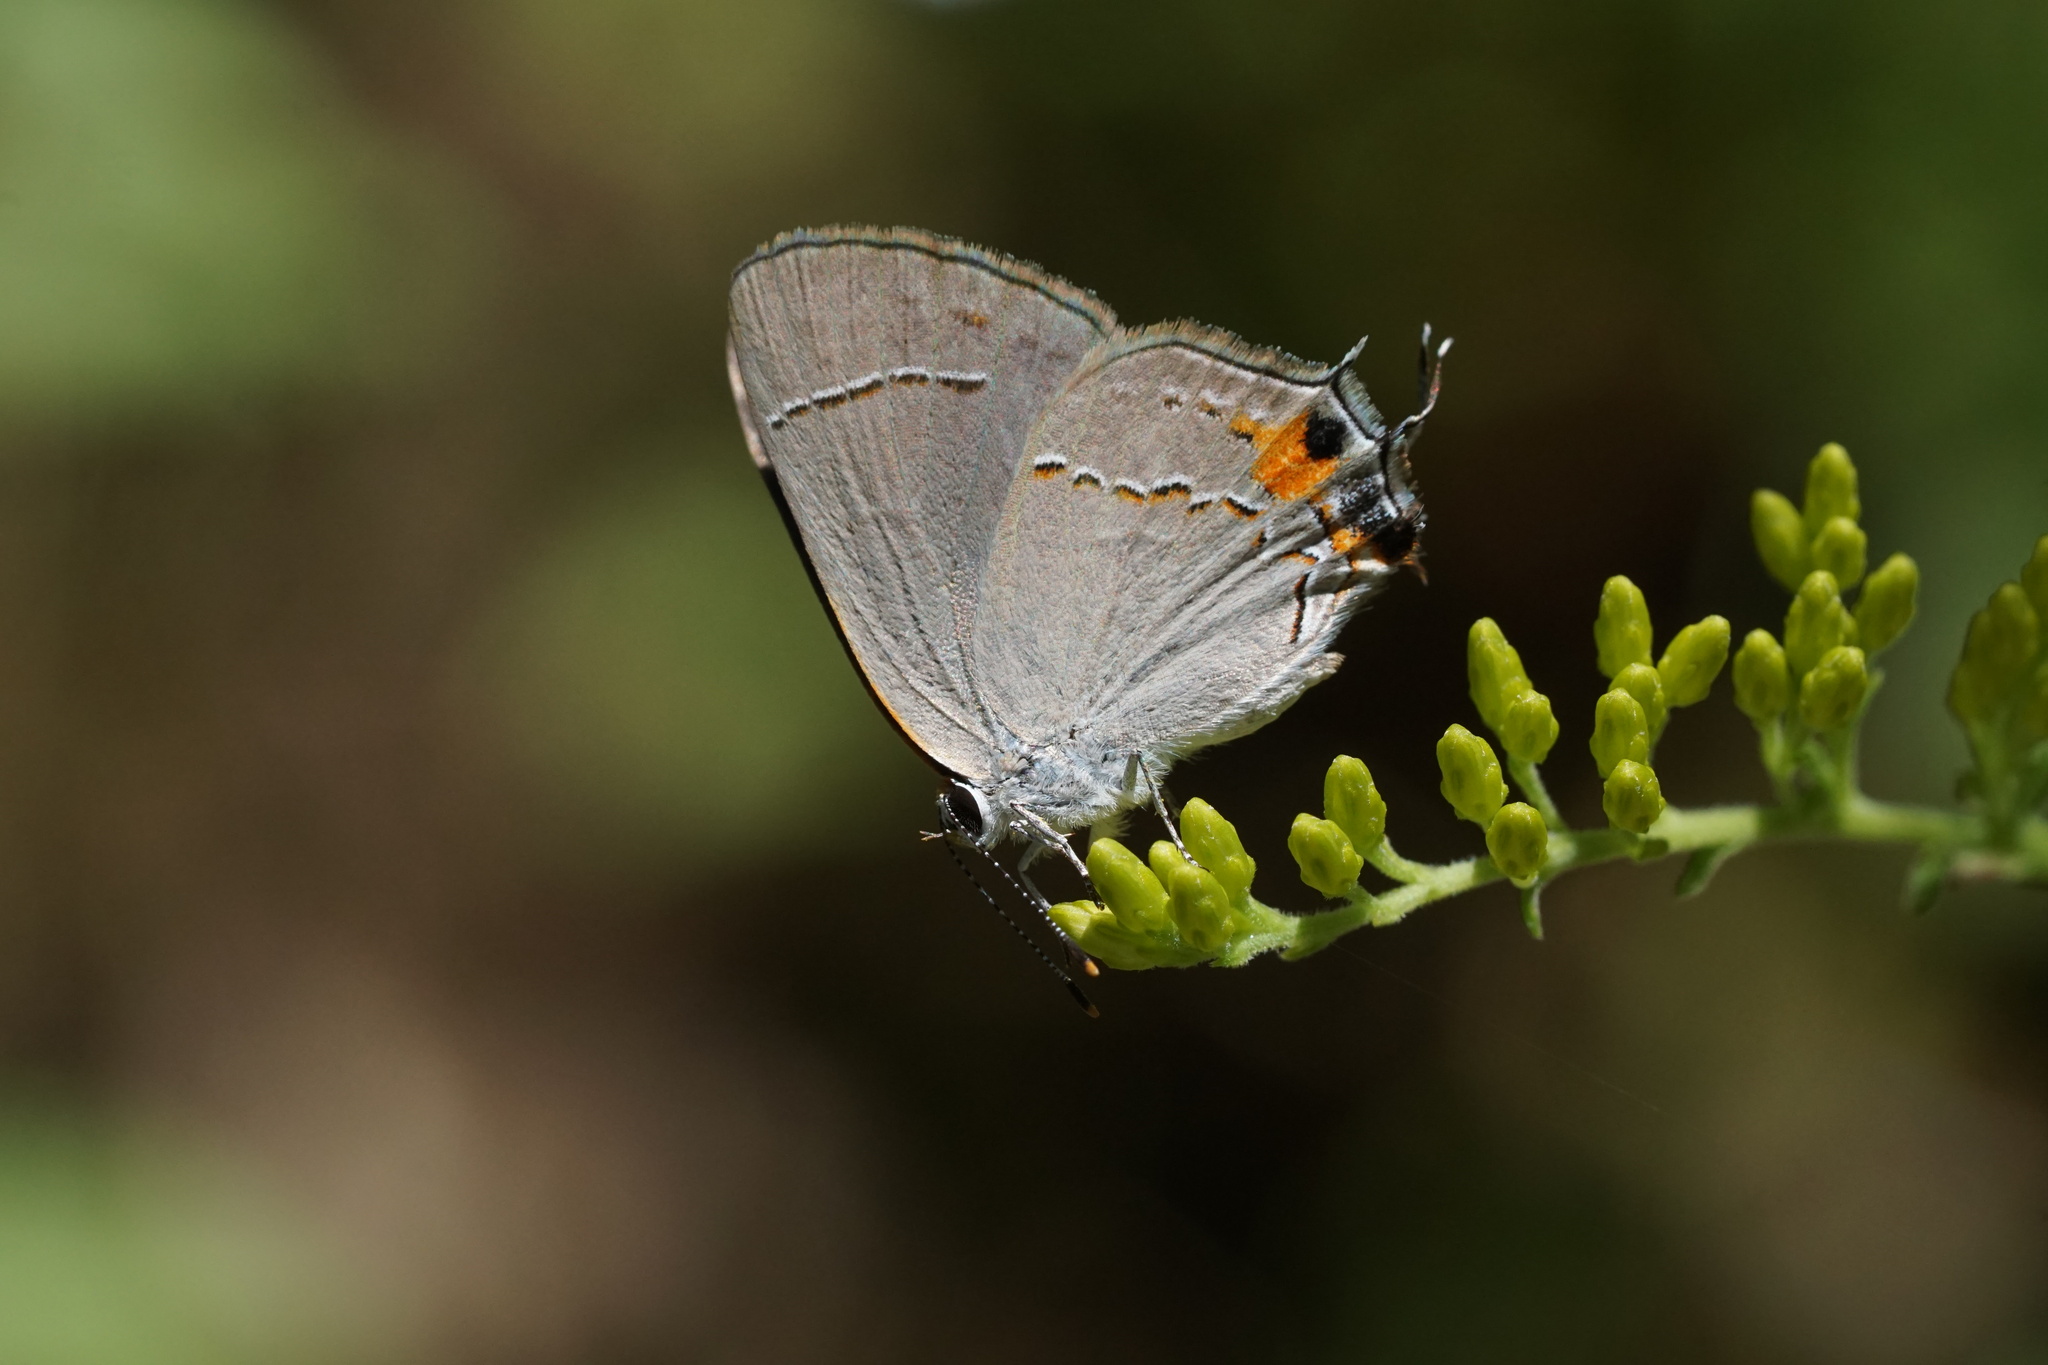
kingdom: Animalia
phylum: Arthropoda
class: Insecta
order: Lepidoptera
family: Lycaenidae
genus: Strymon
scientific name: Strymon melinus
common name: Gray hairstreak
